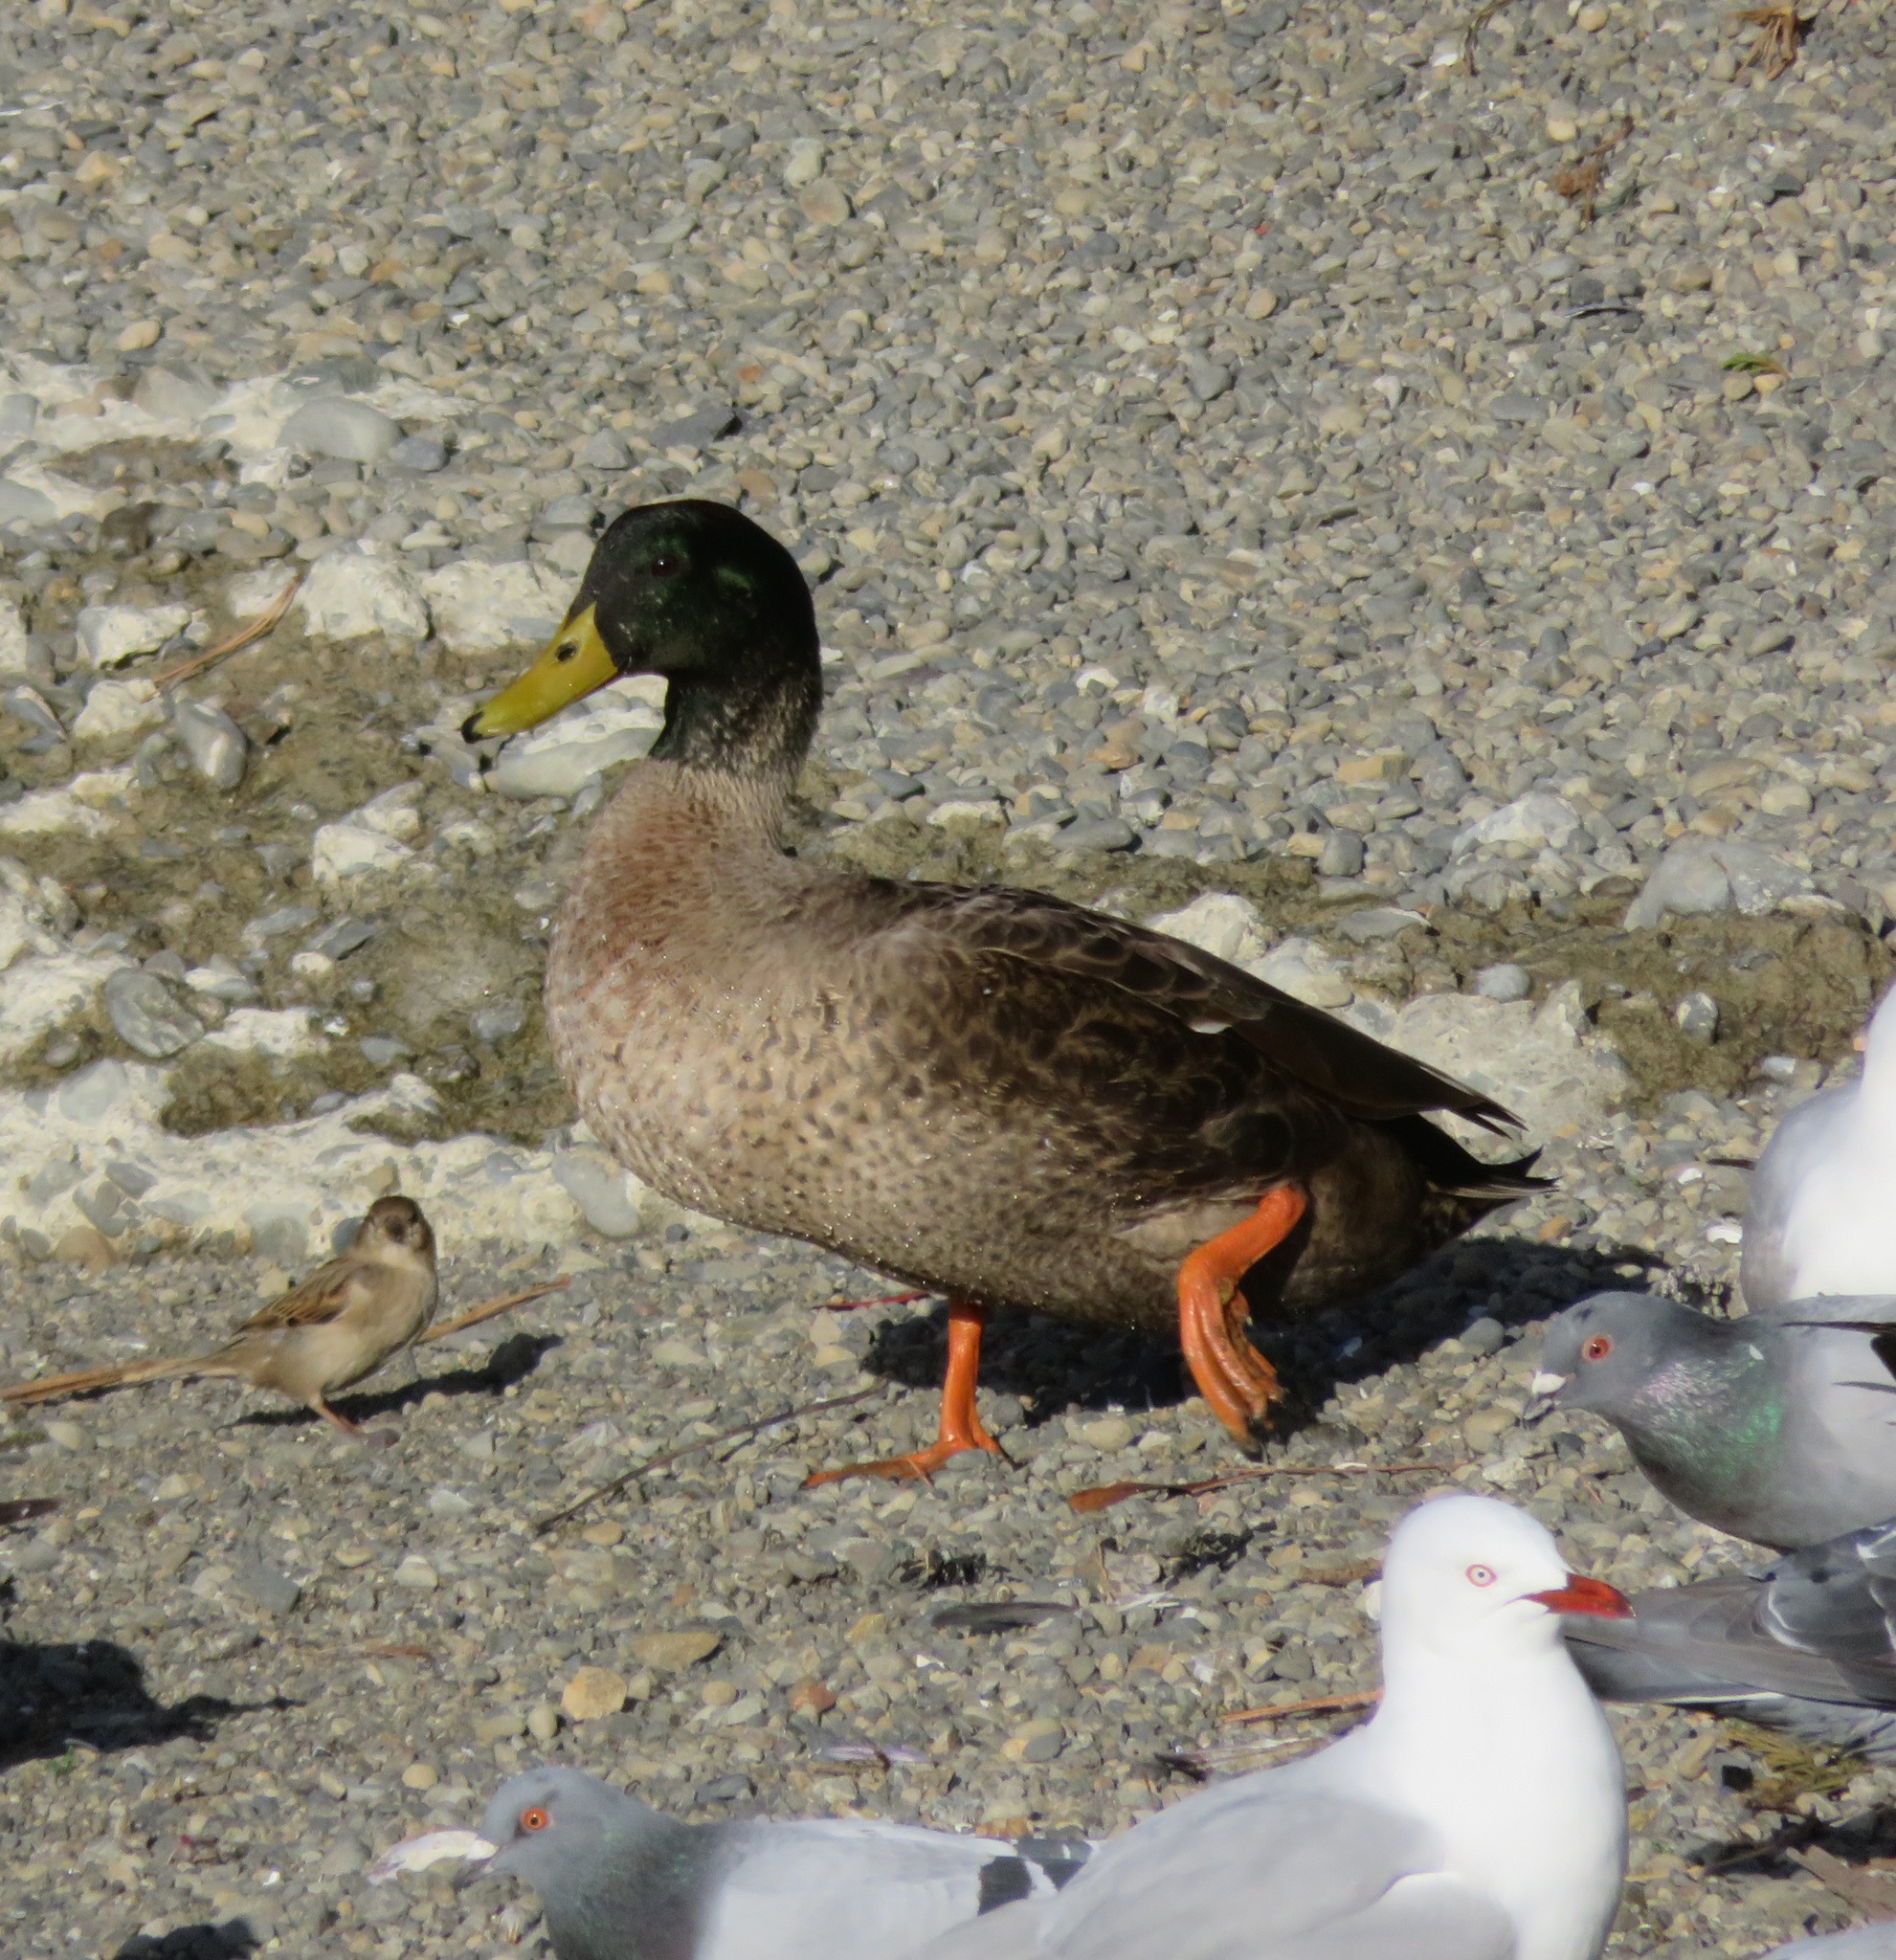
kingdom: Animalia
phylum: Chordata
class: Aves
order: Anseriformes
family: Anatidae
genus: Anas
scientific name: Anas platyrhynchos
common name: Mallard
